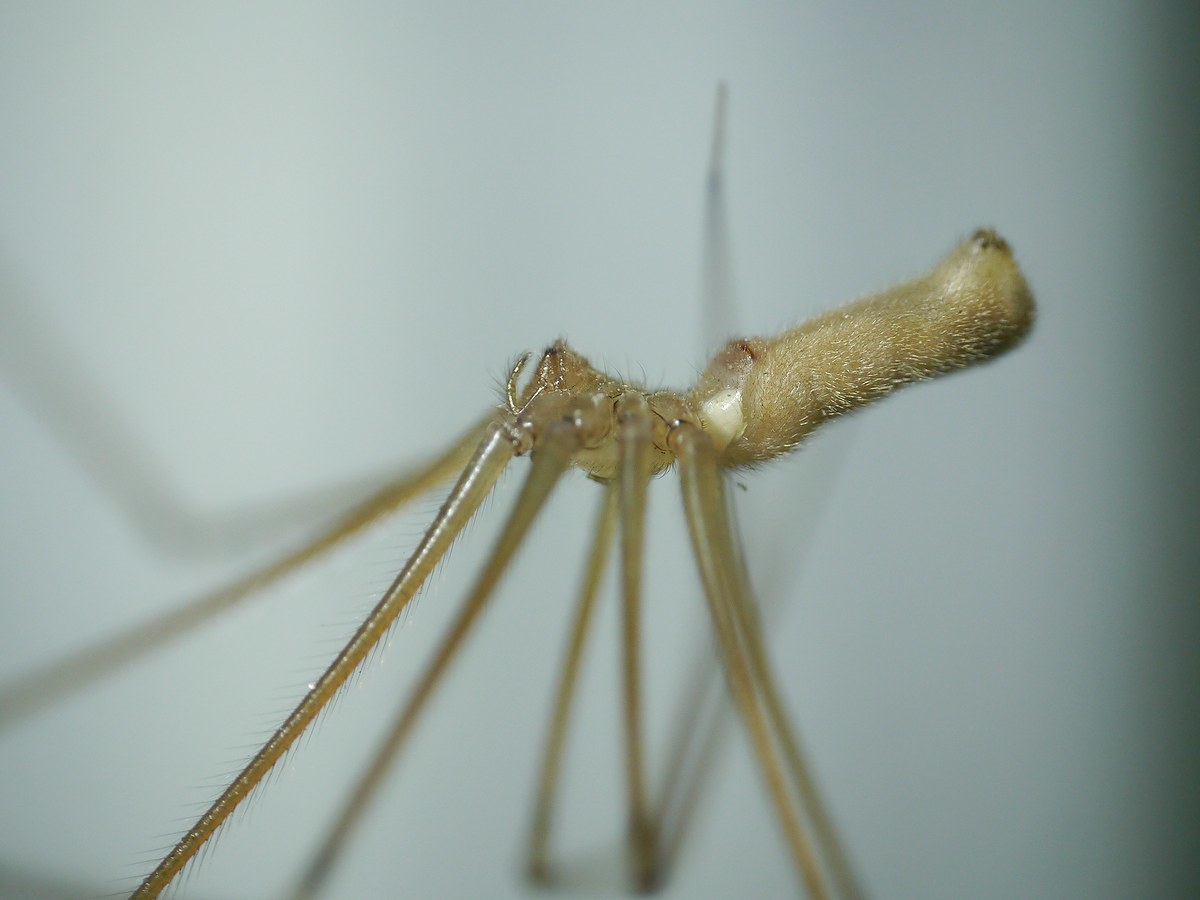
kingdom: Animalia
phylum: Arthropoda
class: Arachnida
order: Araneae
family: Pholcidae
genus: Pholcus
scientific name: Pholcus phalangioides
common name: Longbodied cellar spider
